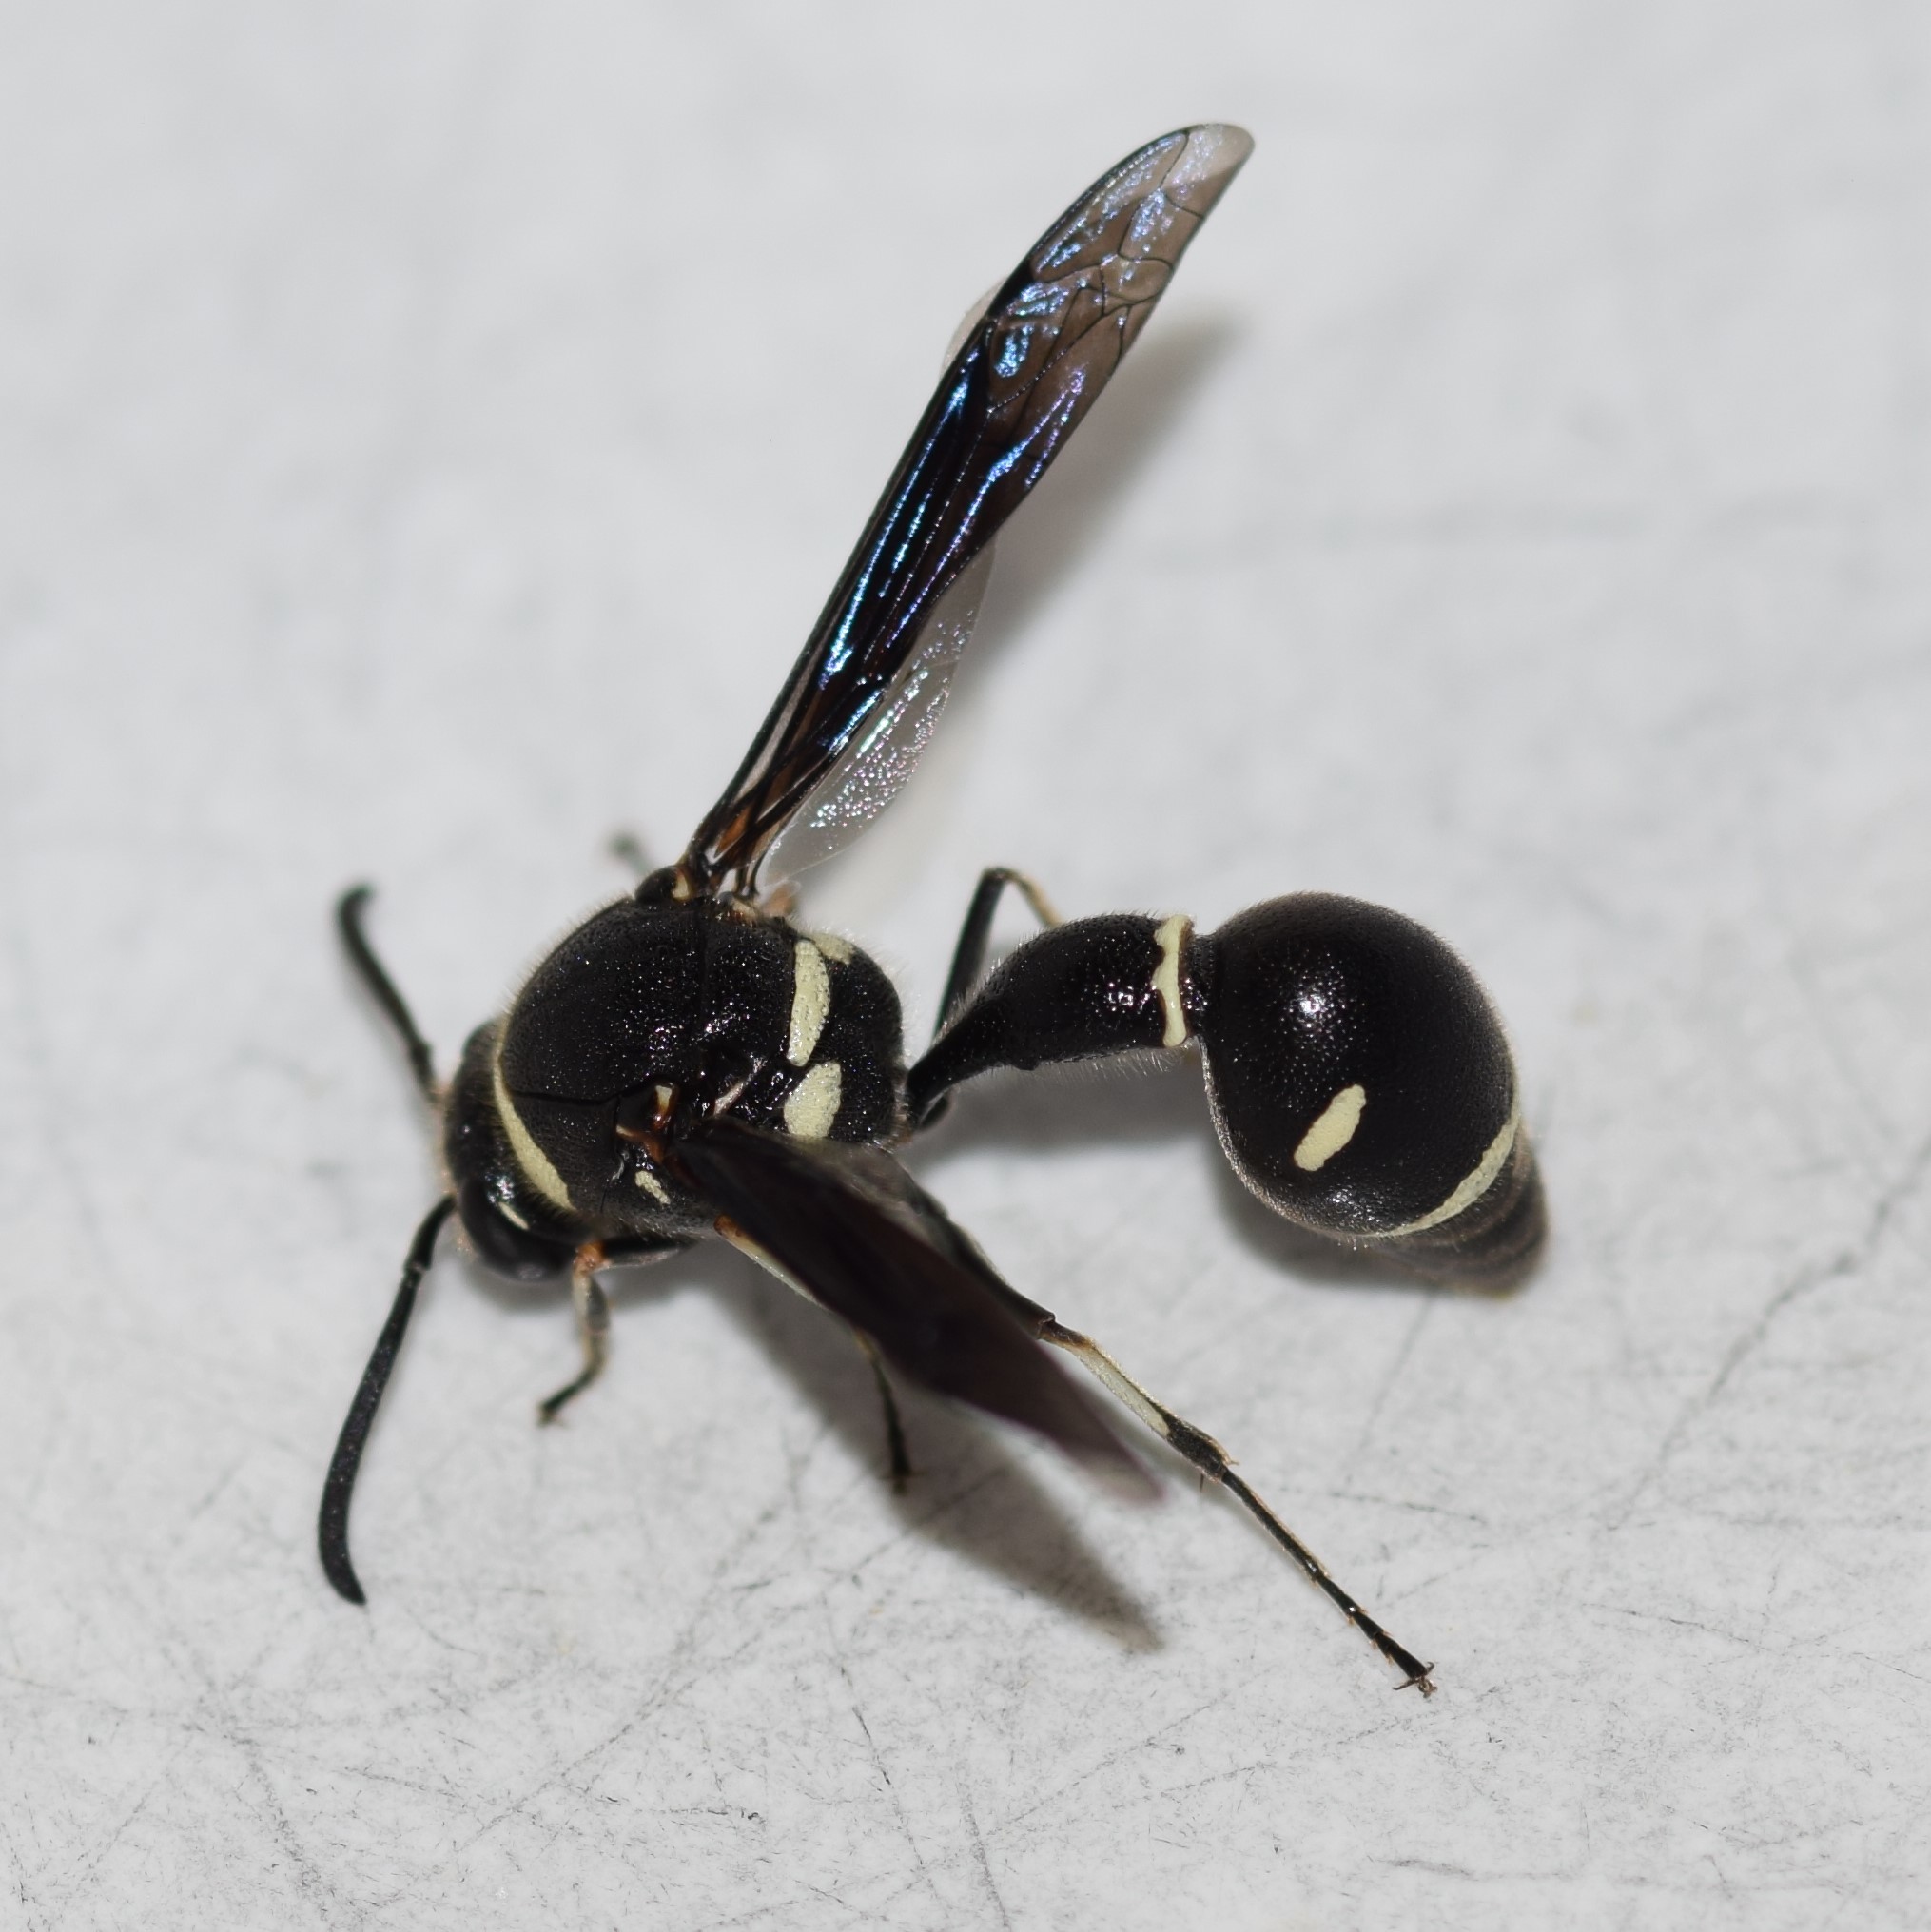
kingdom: Animalia
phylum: Arthropoda
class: Insecta
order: Hymenoptera
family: Vespidae
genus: Eumenes
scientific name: Eumenes fraternus
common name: Fraternal potter wasp
